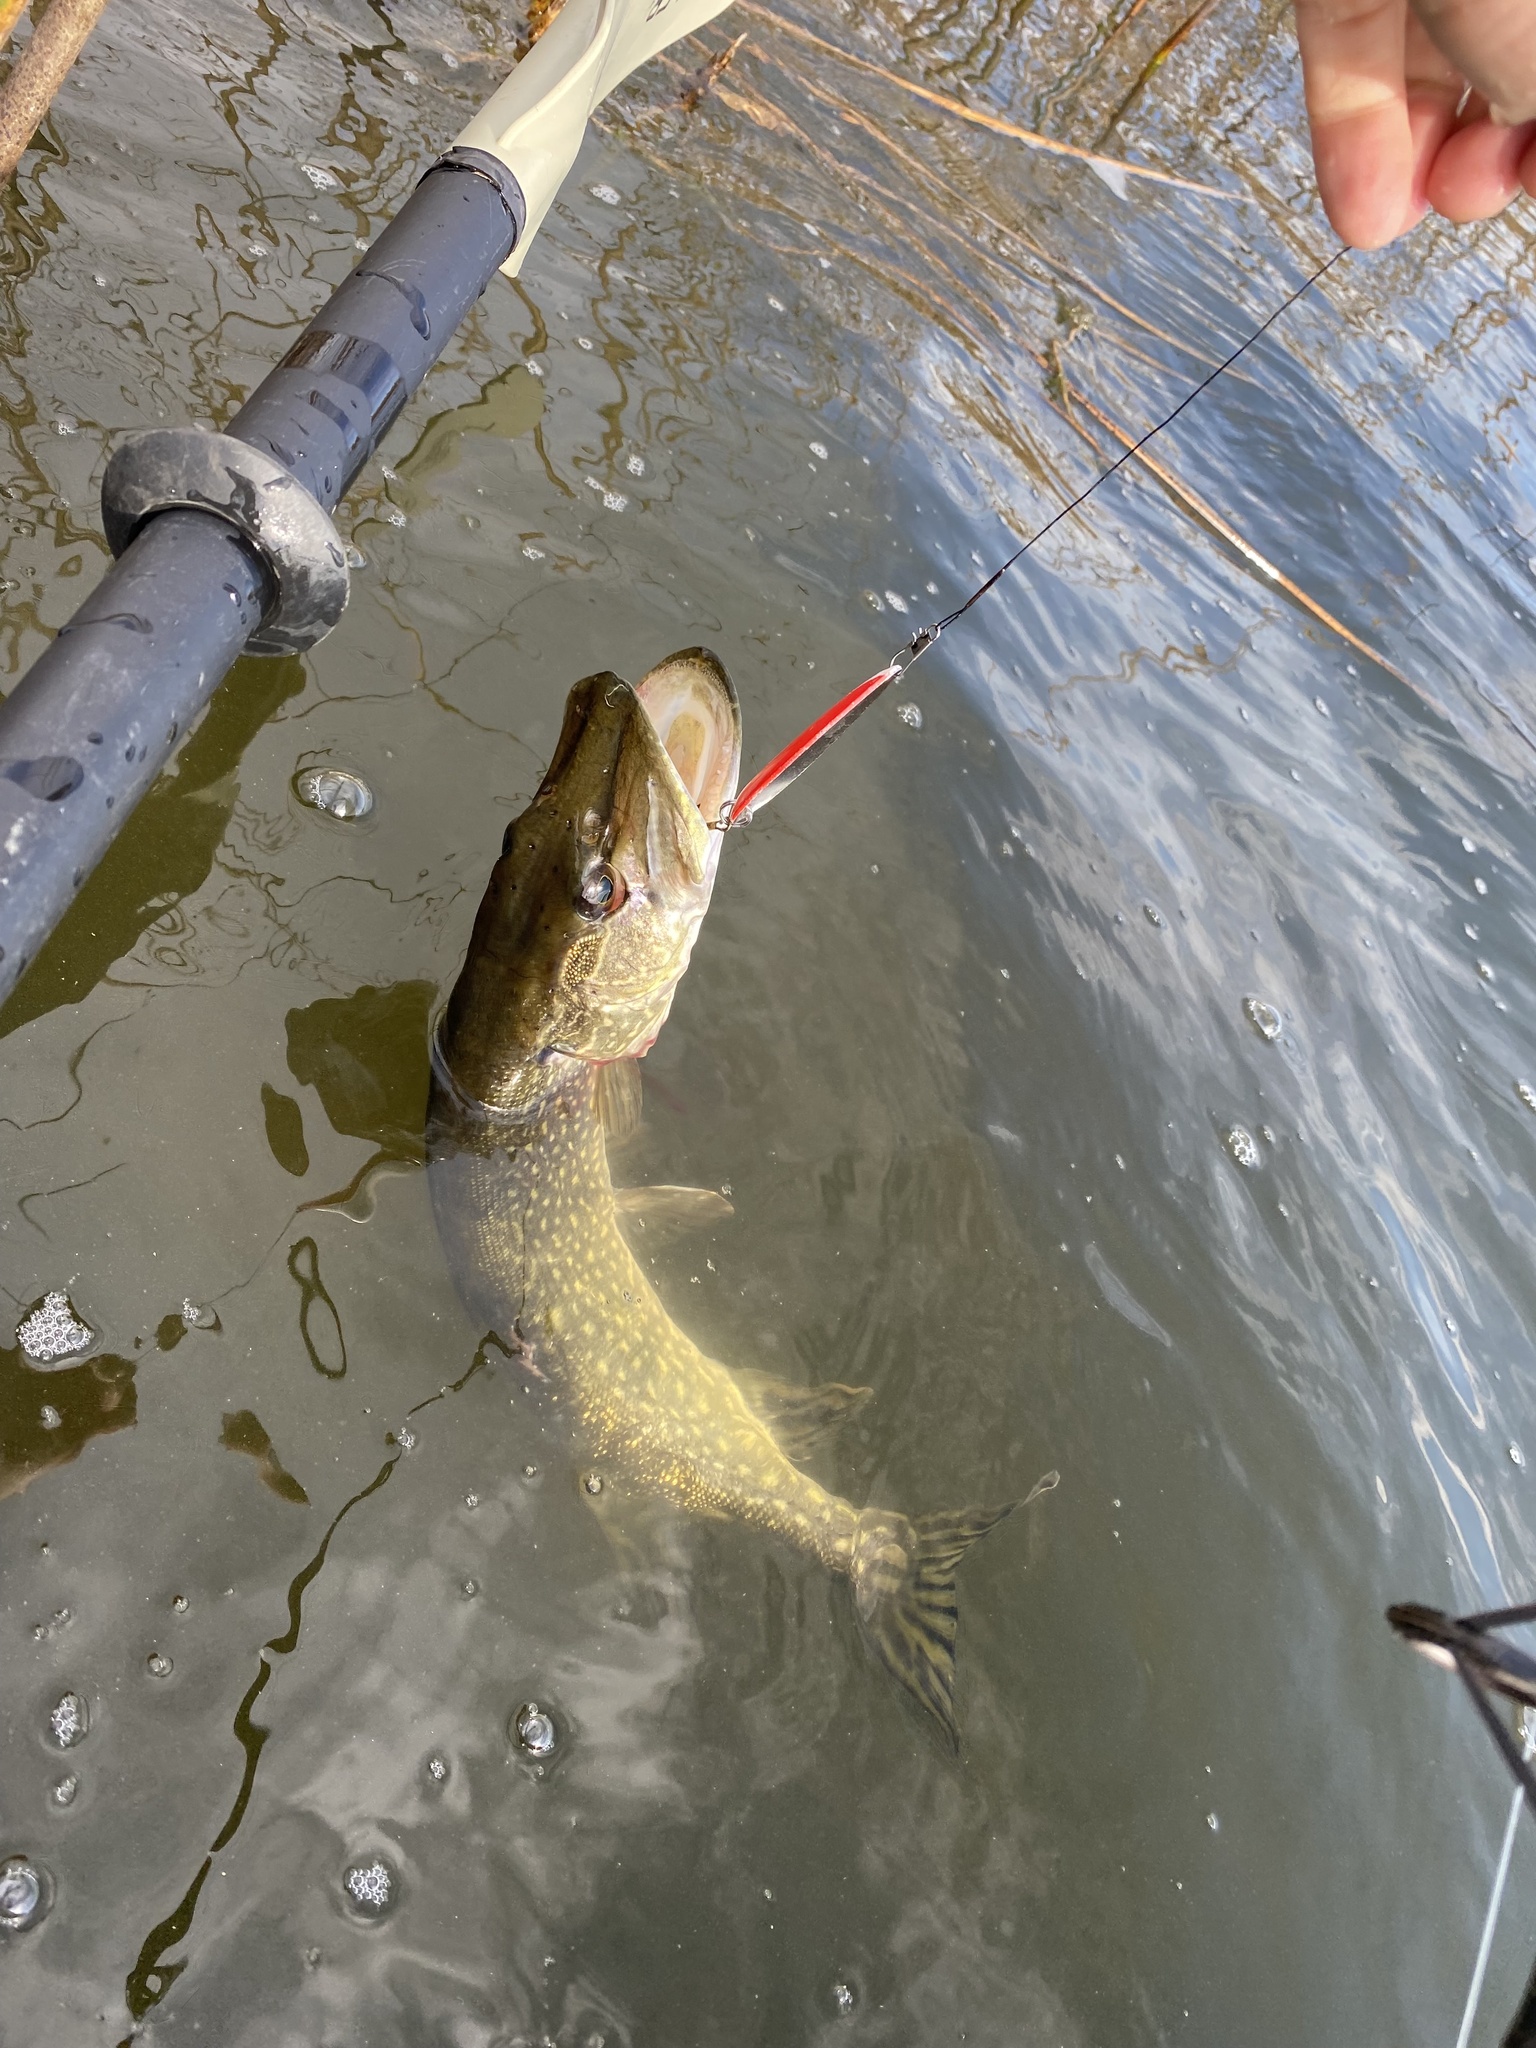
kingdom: Animalia
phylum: Chordata
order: Esociformes
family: Esocidae
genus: Esox
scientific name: Esox lucius
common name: Northern pike
